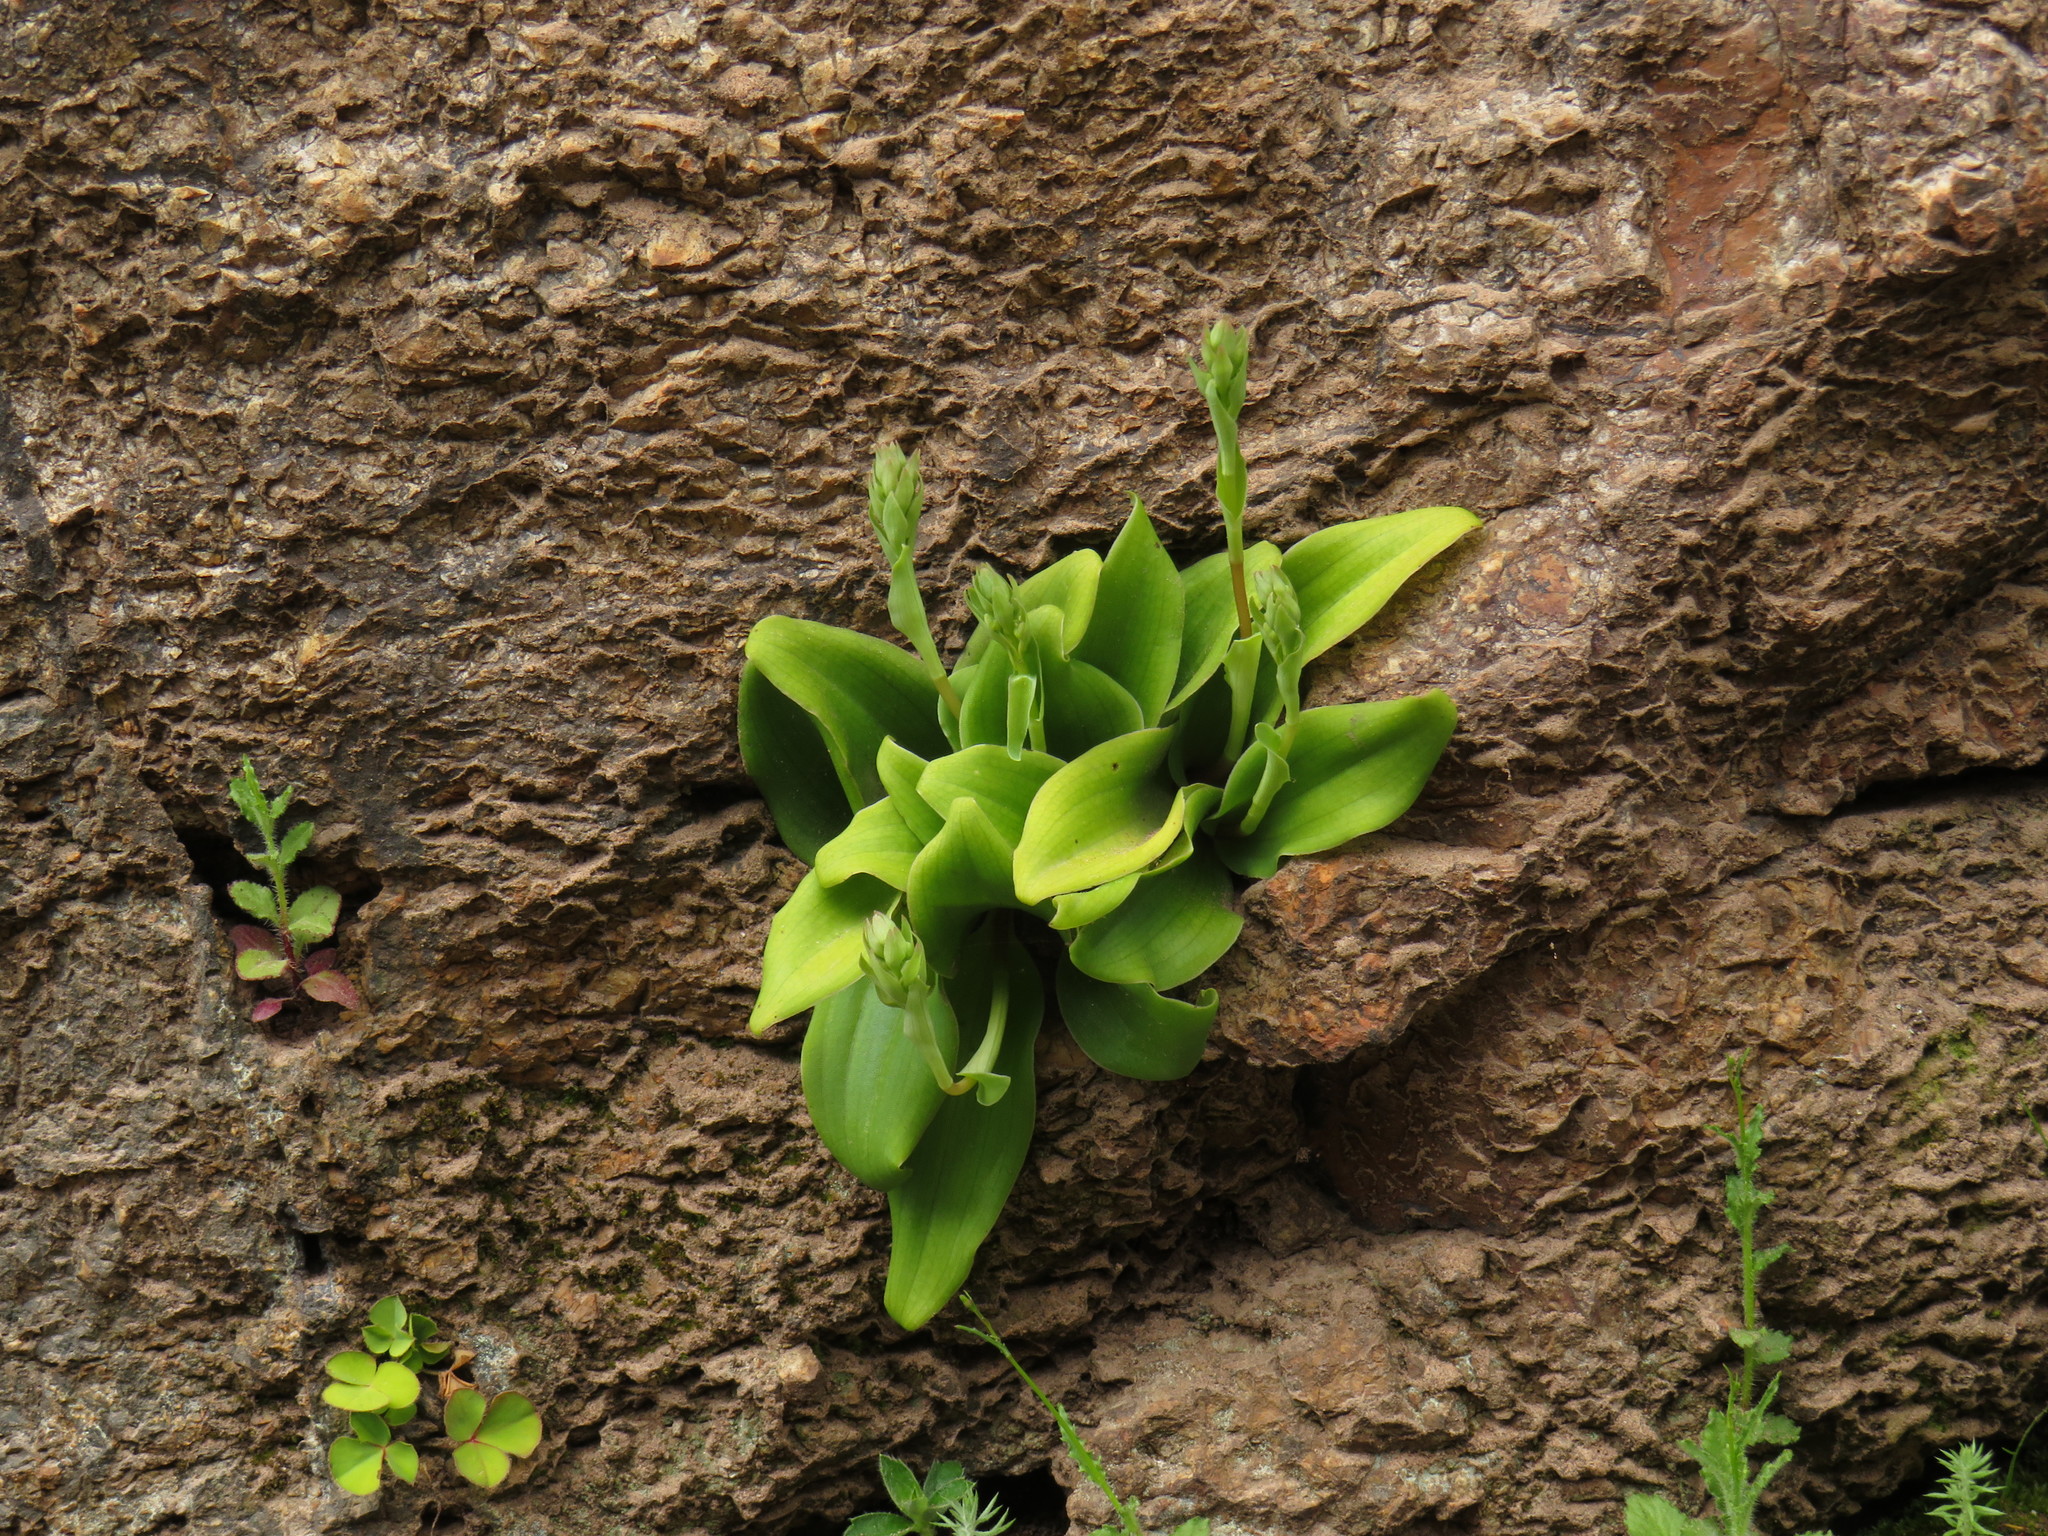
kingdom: Plantae
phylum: Tracheophyta
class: Liliopsida
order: Asparagales
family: Orchidaceae
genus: Satyrium
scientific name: Satyrium humile
